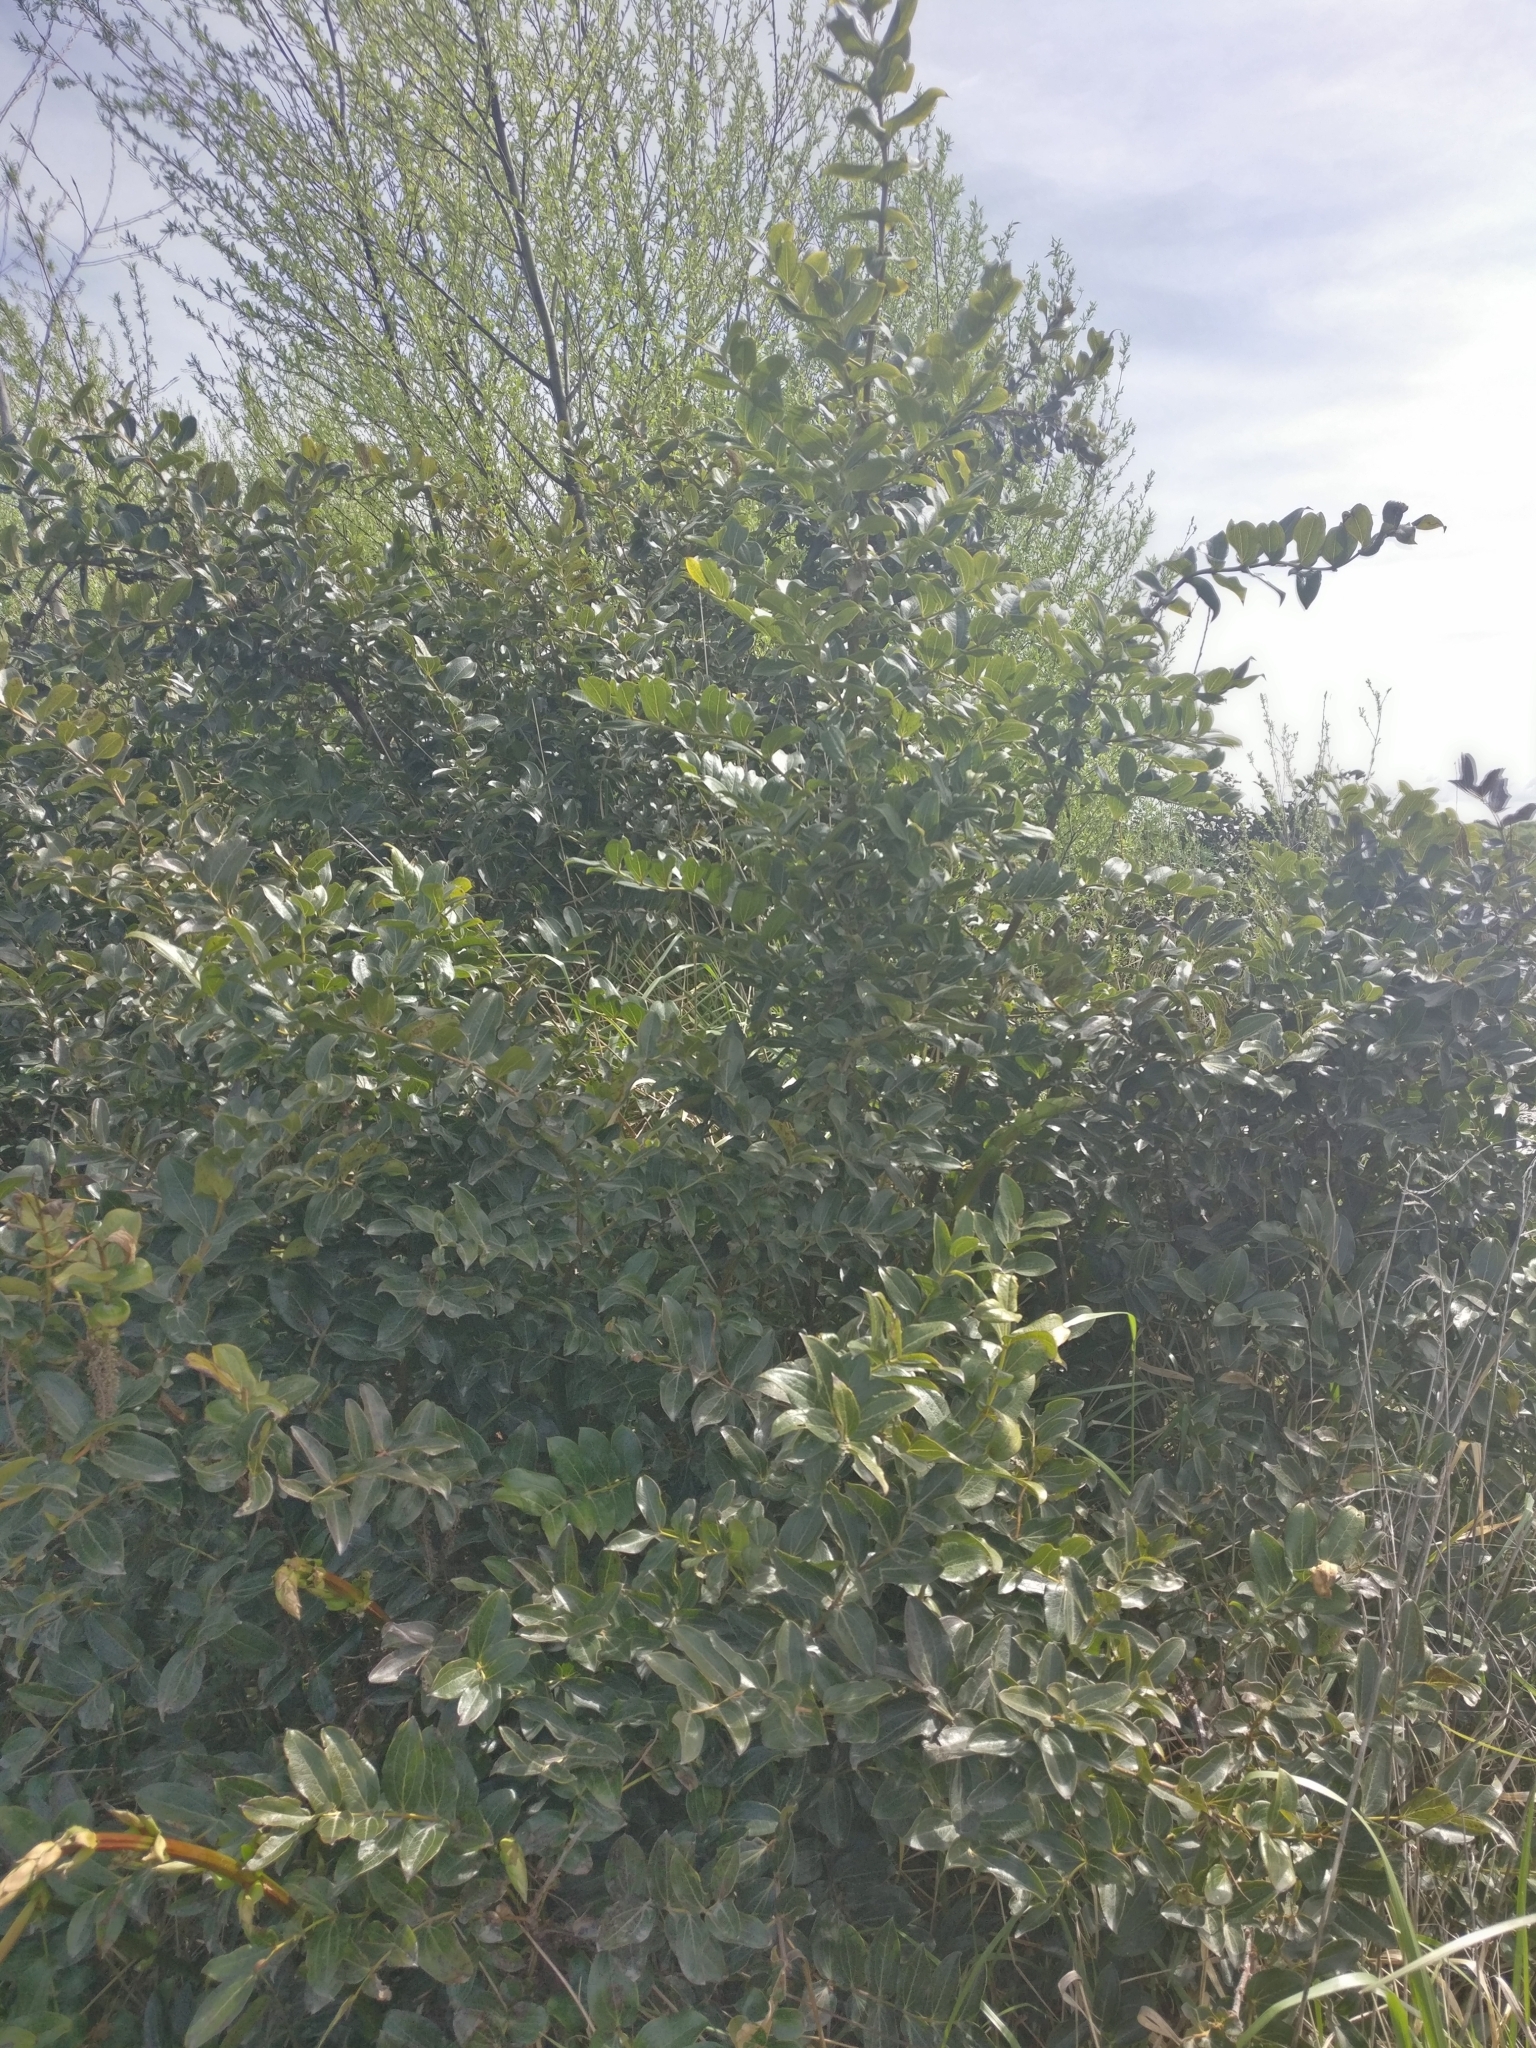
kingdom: Plantae
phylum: Tracheophyta
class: Magnoliopsida
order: Cucurbitales
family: Coriariaceae
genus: Coriaria
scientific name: Coriaria arborea
